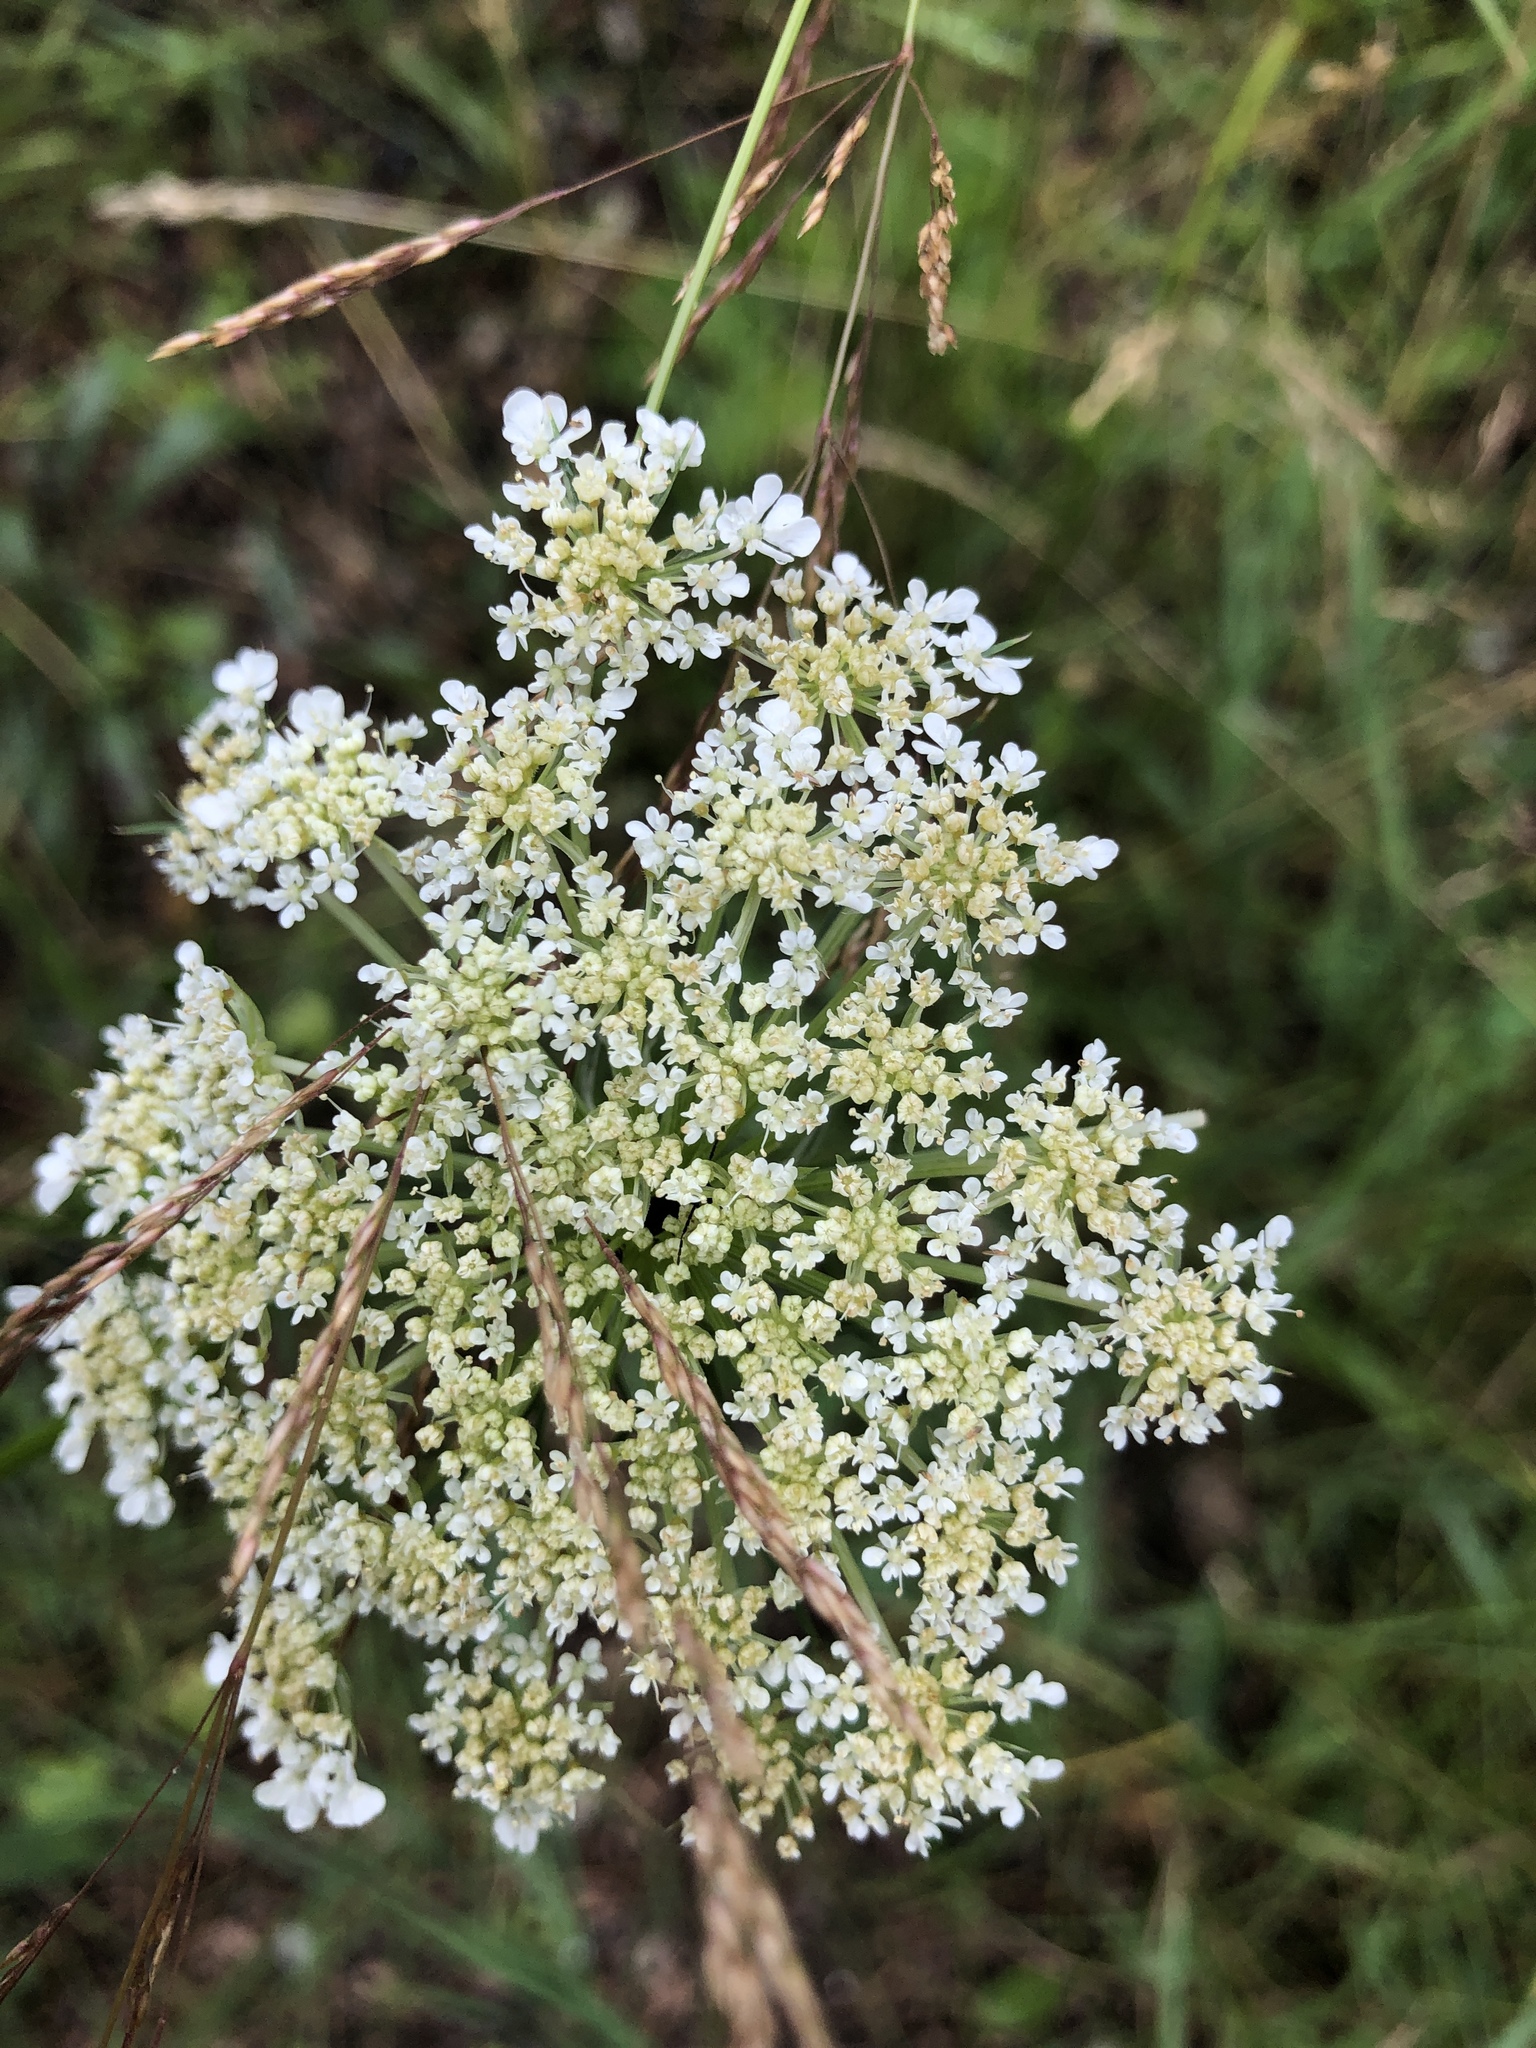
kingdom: Plantae
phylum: Tracheophyta
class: Magnoliopsida
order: Apiales
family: Apiaceae
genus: Daucus
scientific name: Daucus carota
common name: Wild carrot
